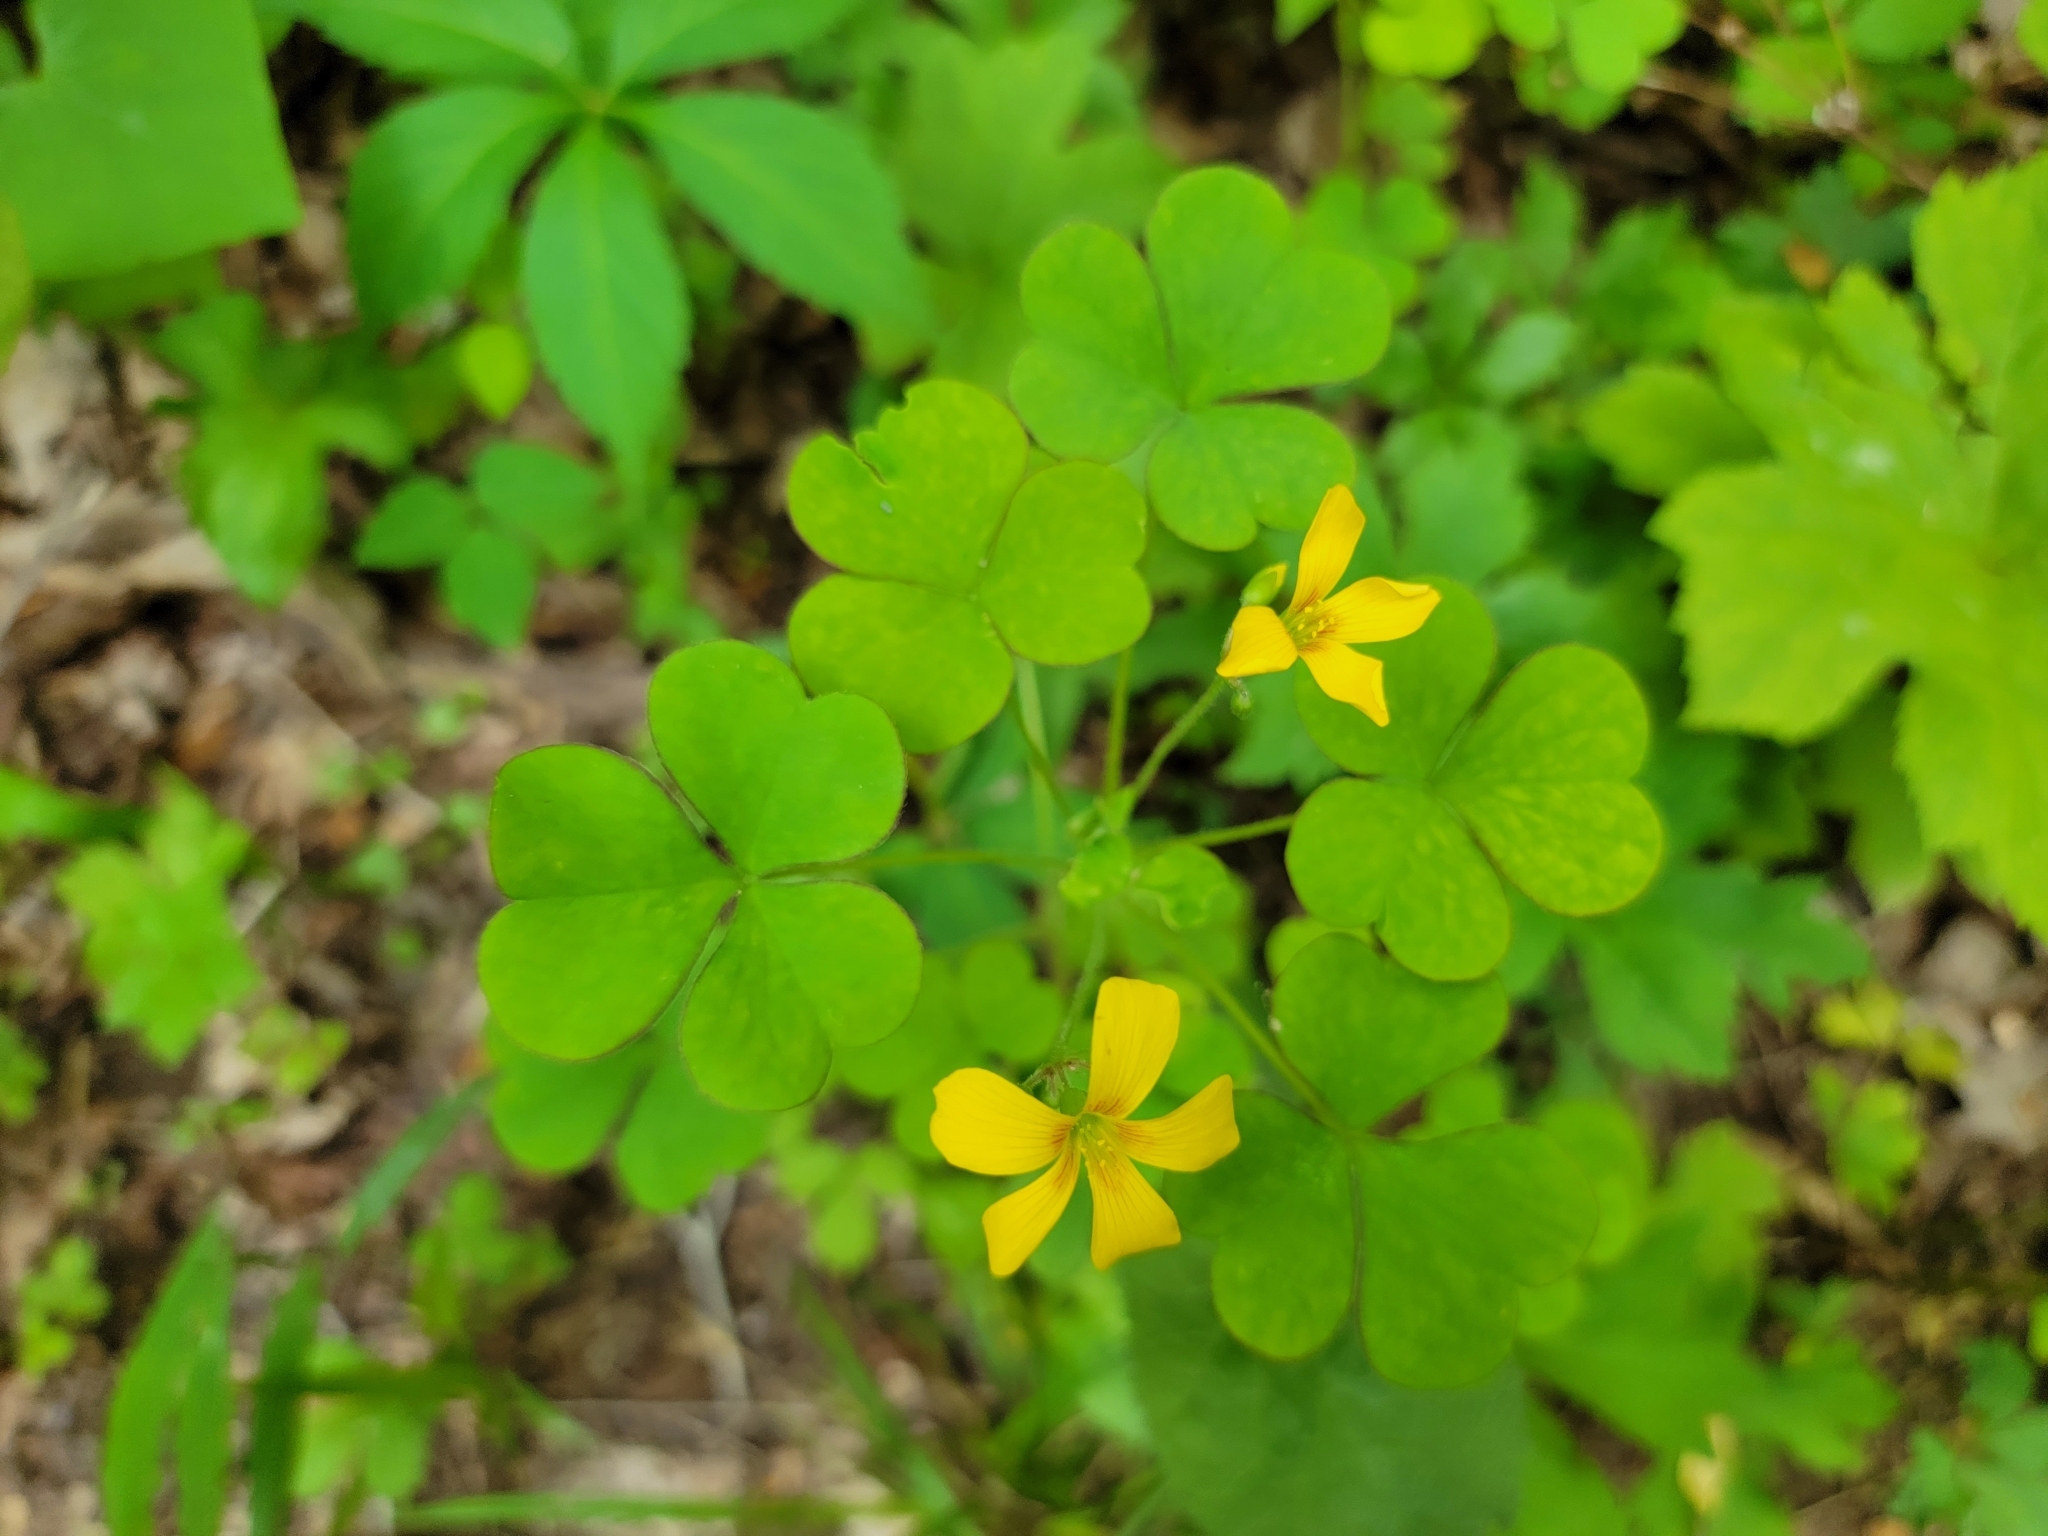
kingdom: Plantae
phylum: Tracheophyta
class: Magnoliopsida
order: Oxalidales
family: Oxalidaceae
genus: Oxalis
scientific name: Oxalis grandis
